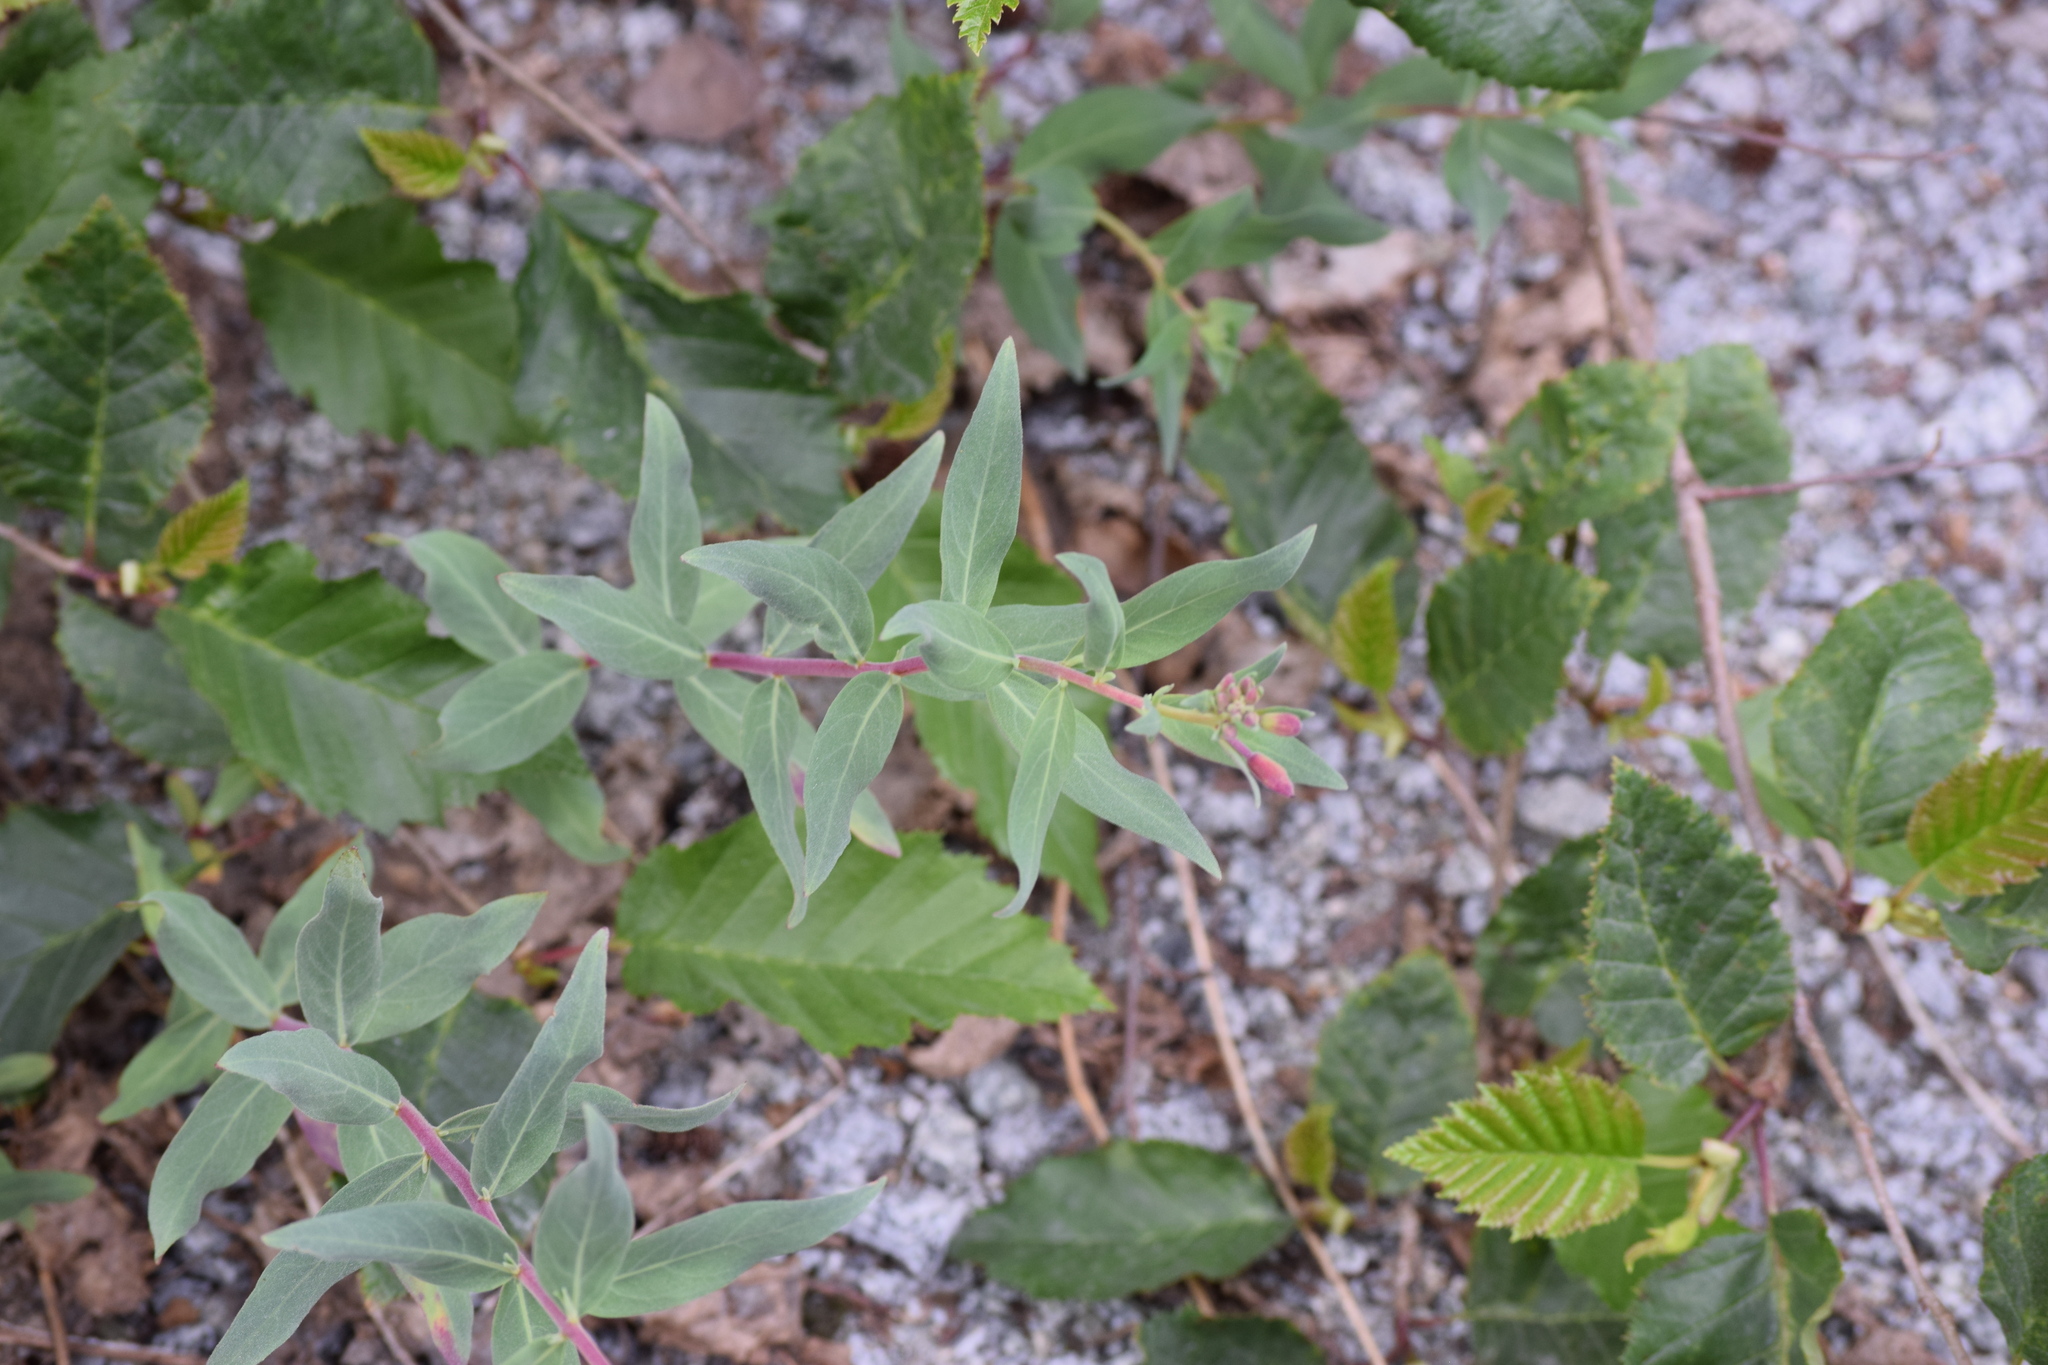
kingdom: Plantae
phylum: Tracheophyta
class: Magnoliopsida
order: Myrtales
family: Onagraceae
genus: Chamaenerion
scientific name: Chamaenerion latifolium
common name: Dwarf fireweed
